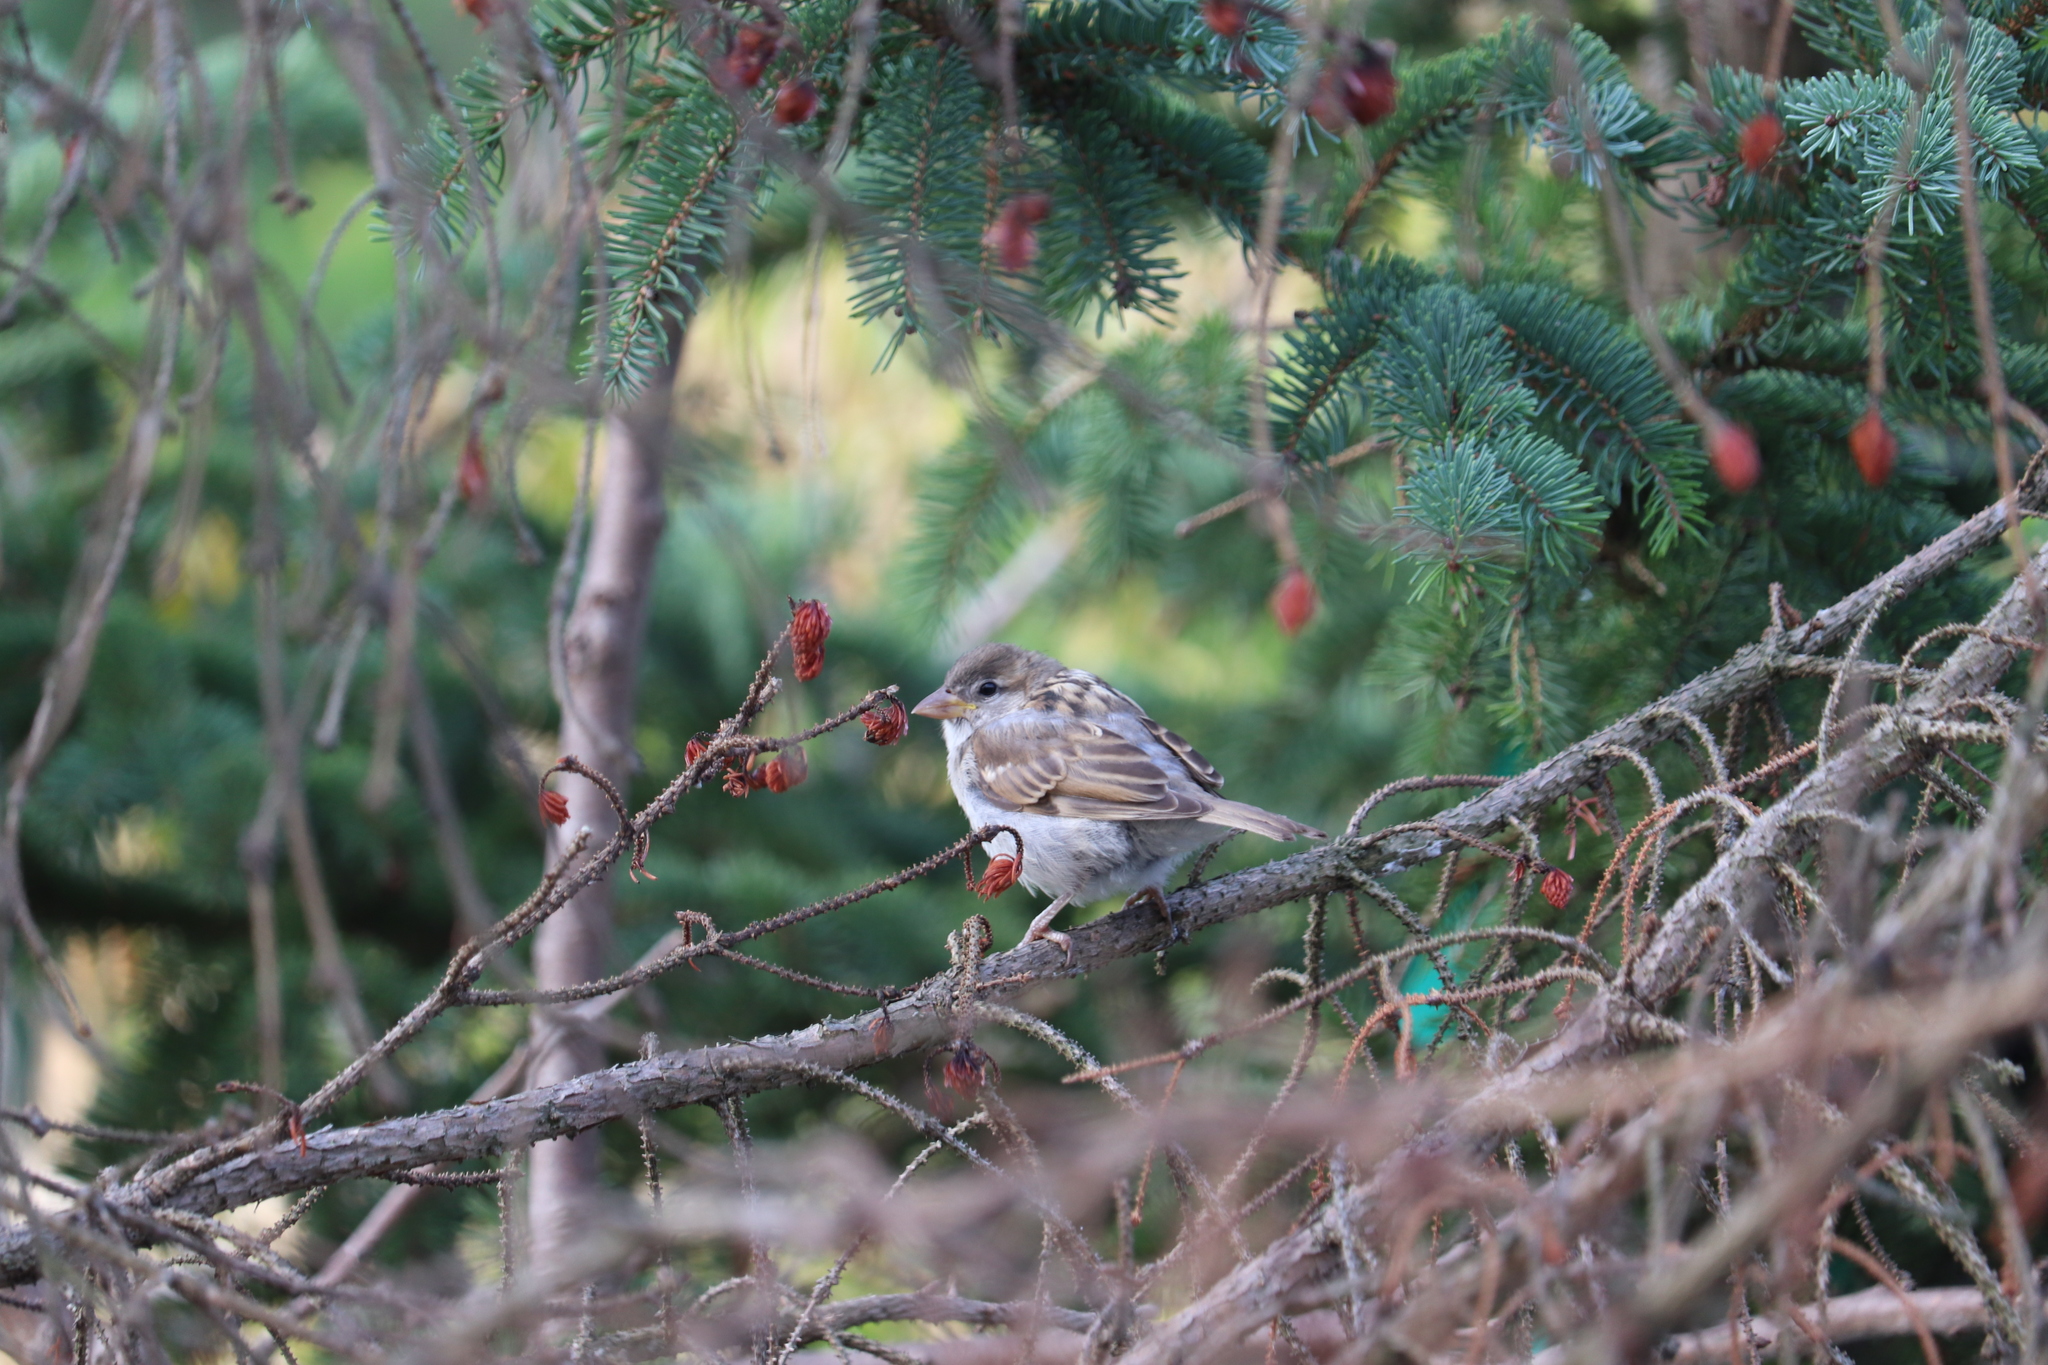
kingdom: Animalia
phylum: Chordata
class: Aves
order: Passeriformes
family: Passeridae
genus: Passer
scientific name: Passer domesticus
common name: House sparrow
